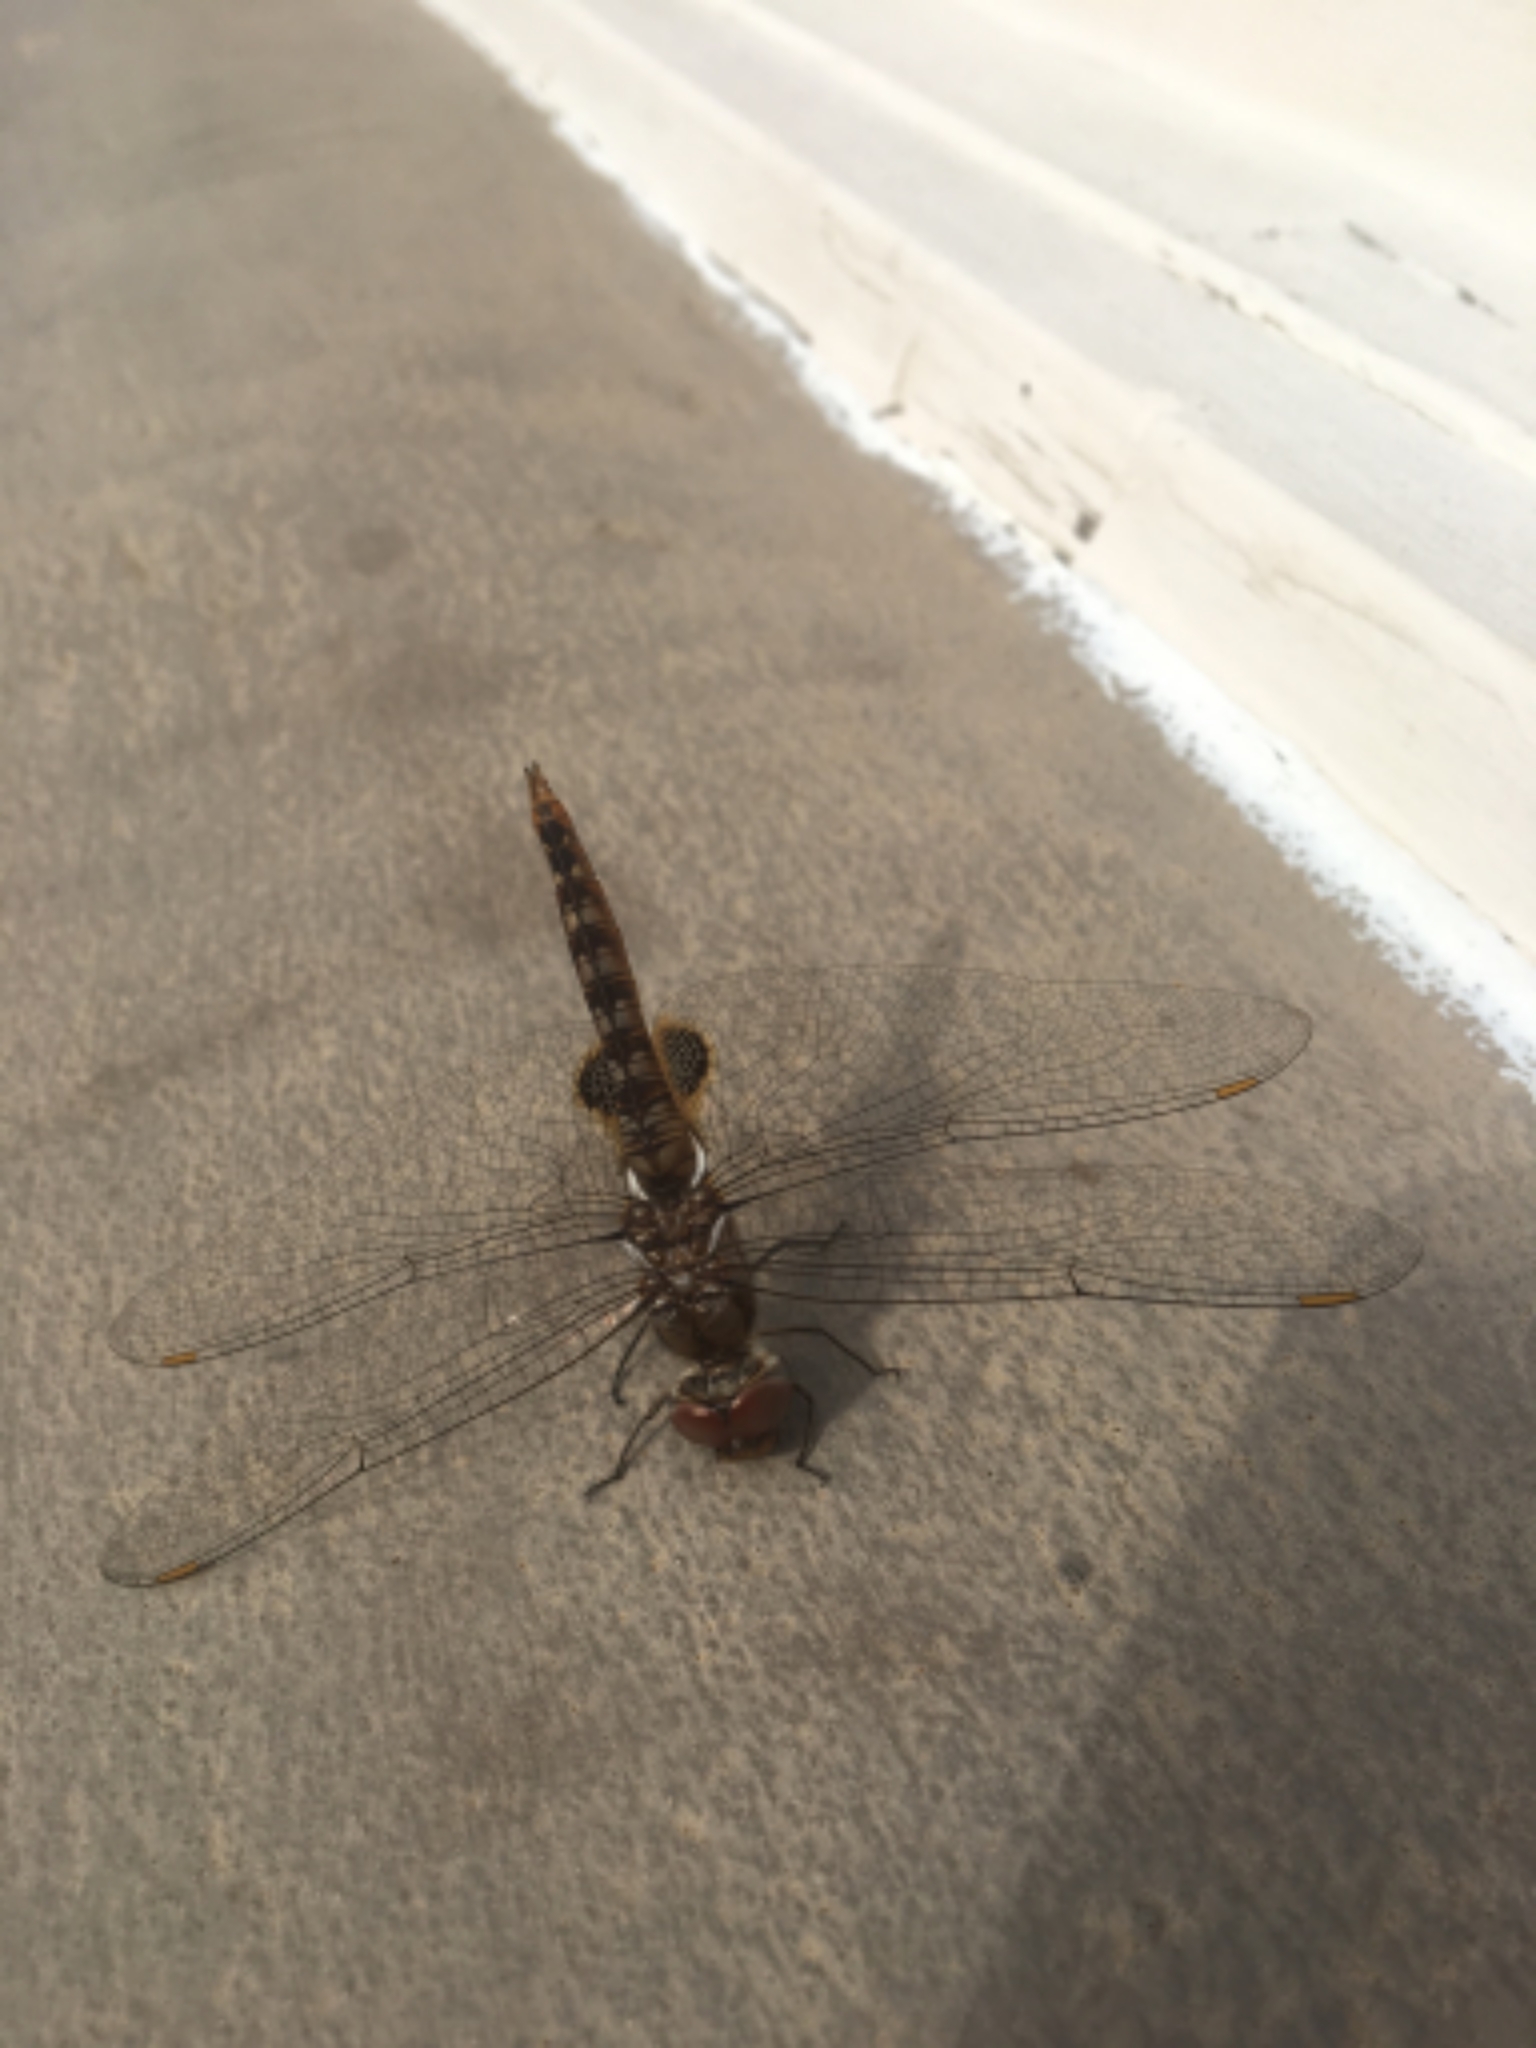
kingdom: Animalia
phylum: Arthropoda
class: Insecta
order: Odonata
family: Libellulidae
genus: Pantala
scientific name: Pantala hymenaea
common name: Spot-winged glider
